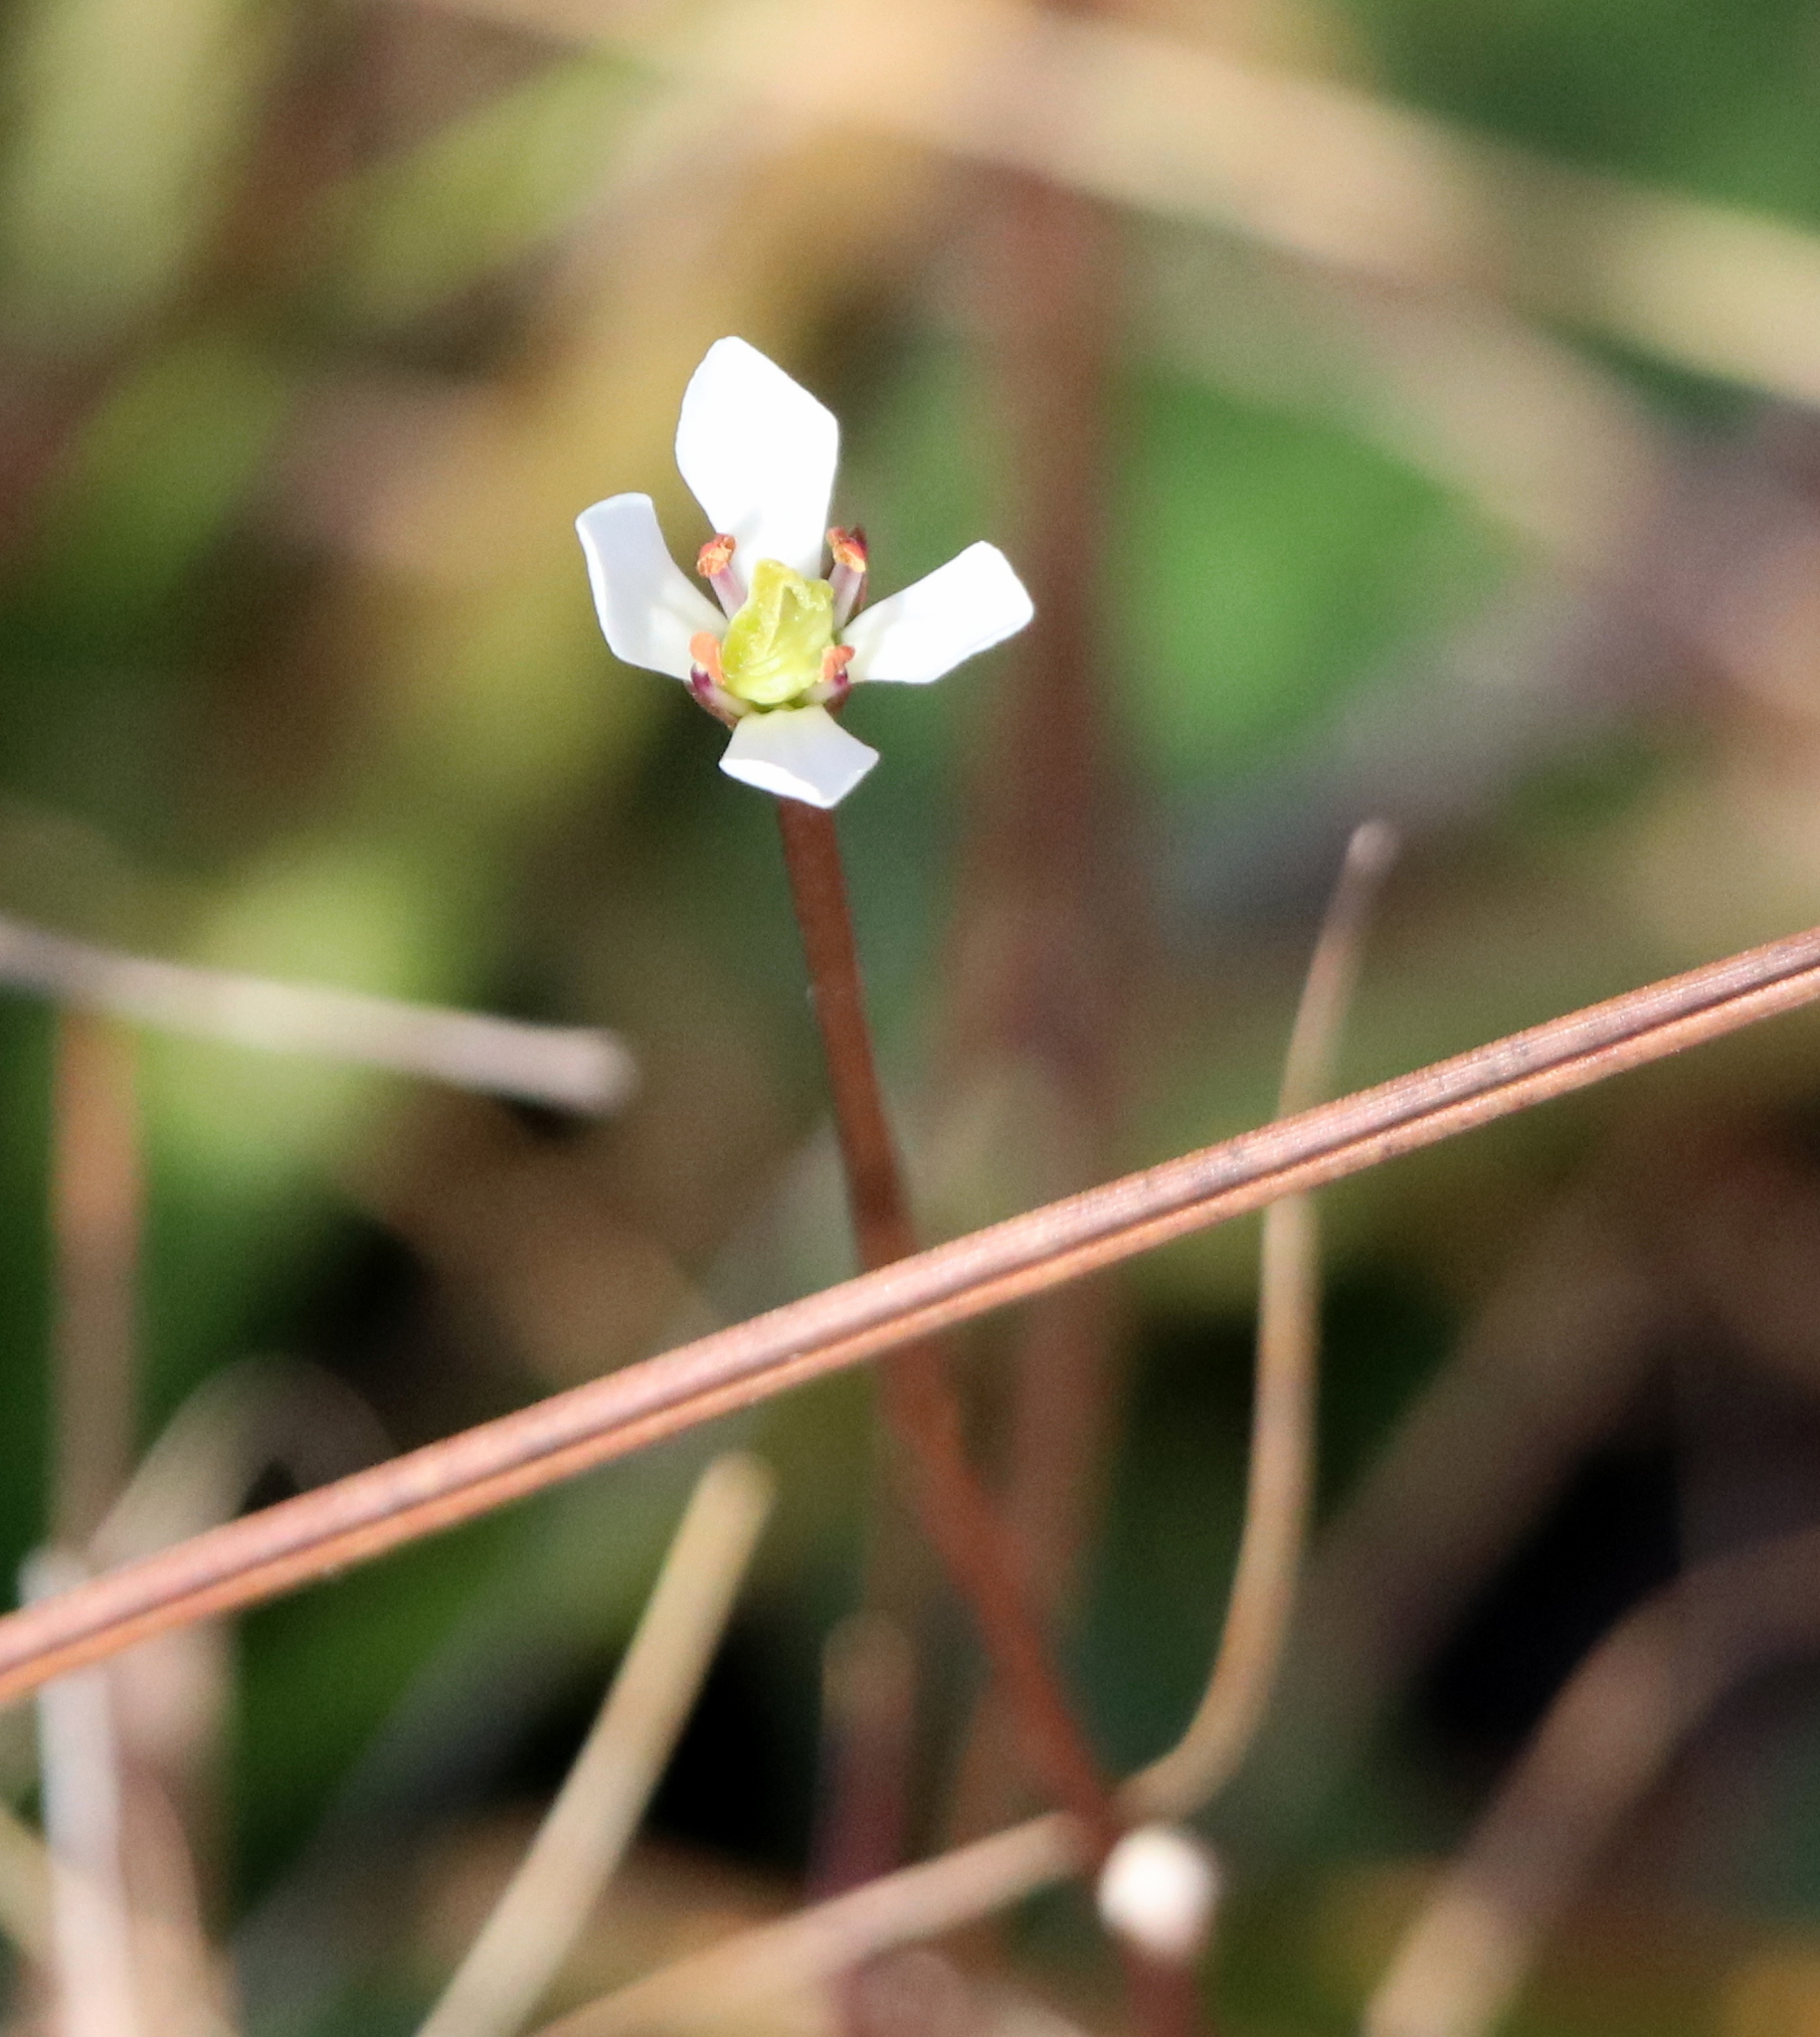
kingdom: Plantae
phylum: Tracheophyta
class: Magnoliopsida
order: Gentianales
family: Gentianaceae
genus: Bartonia
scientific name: Bartonia verna
